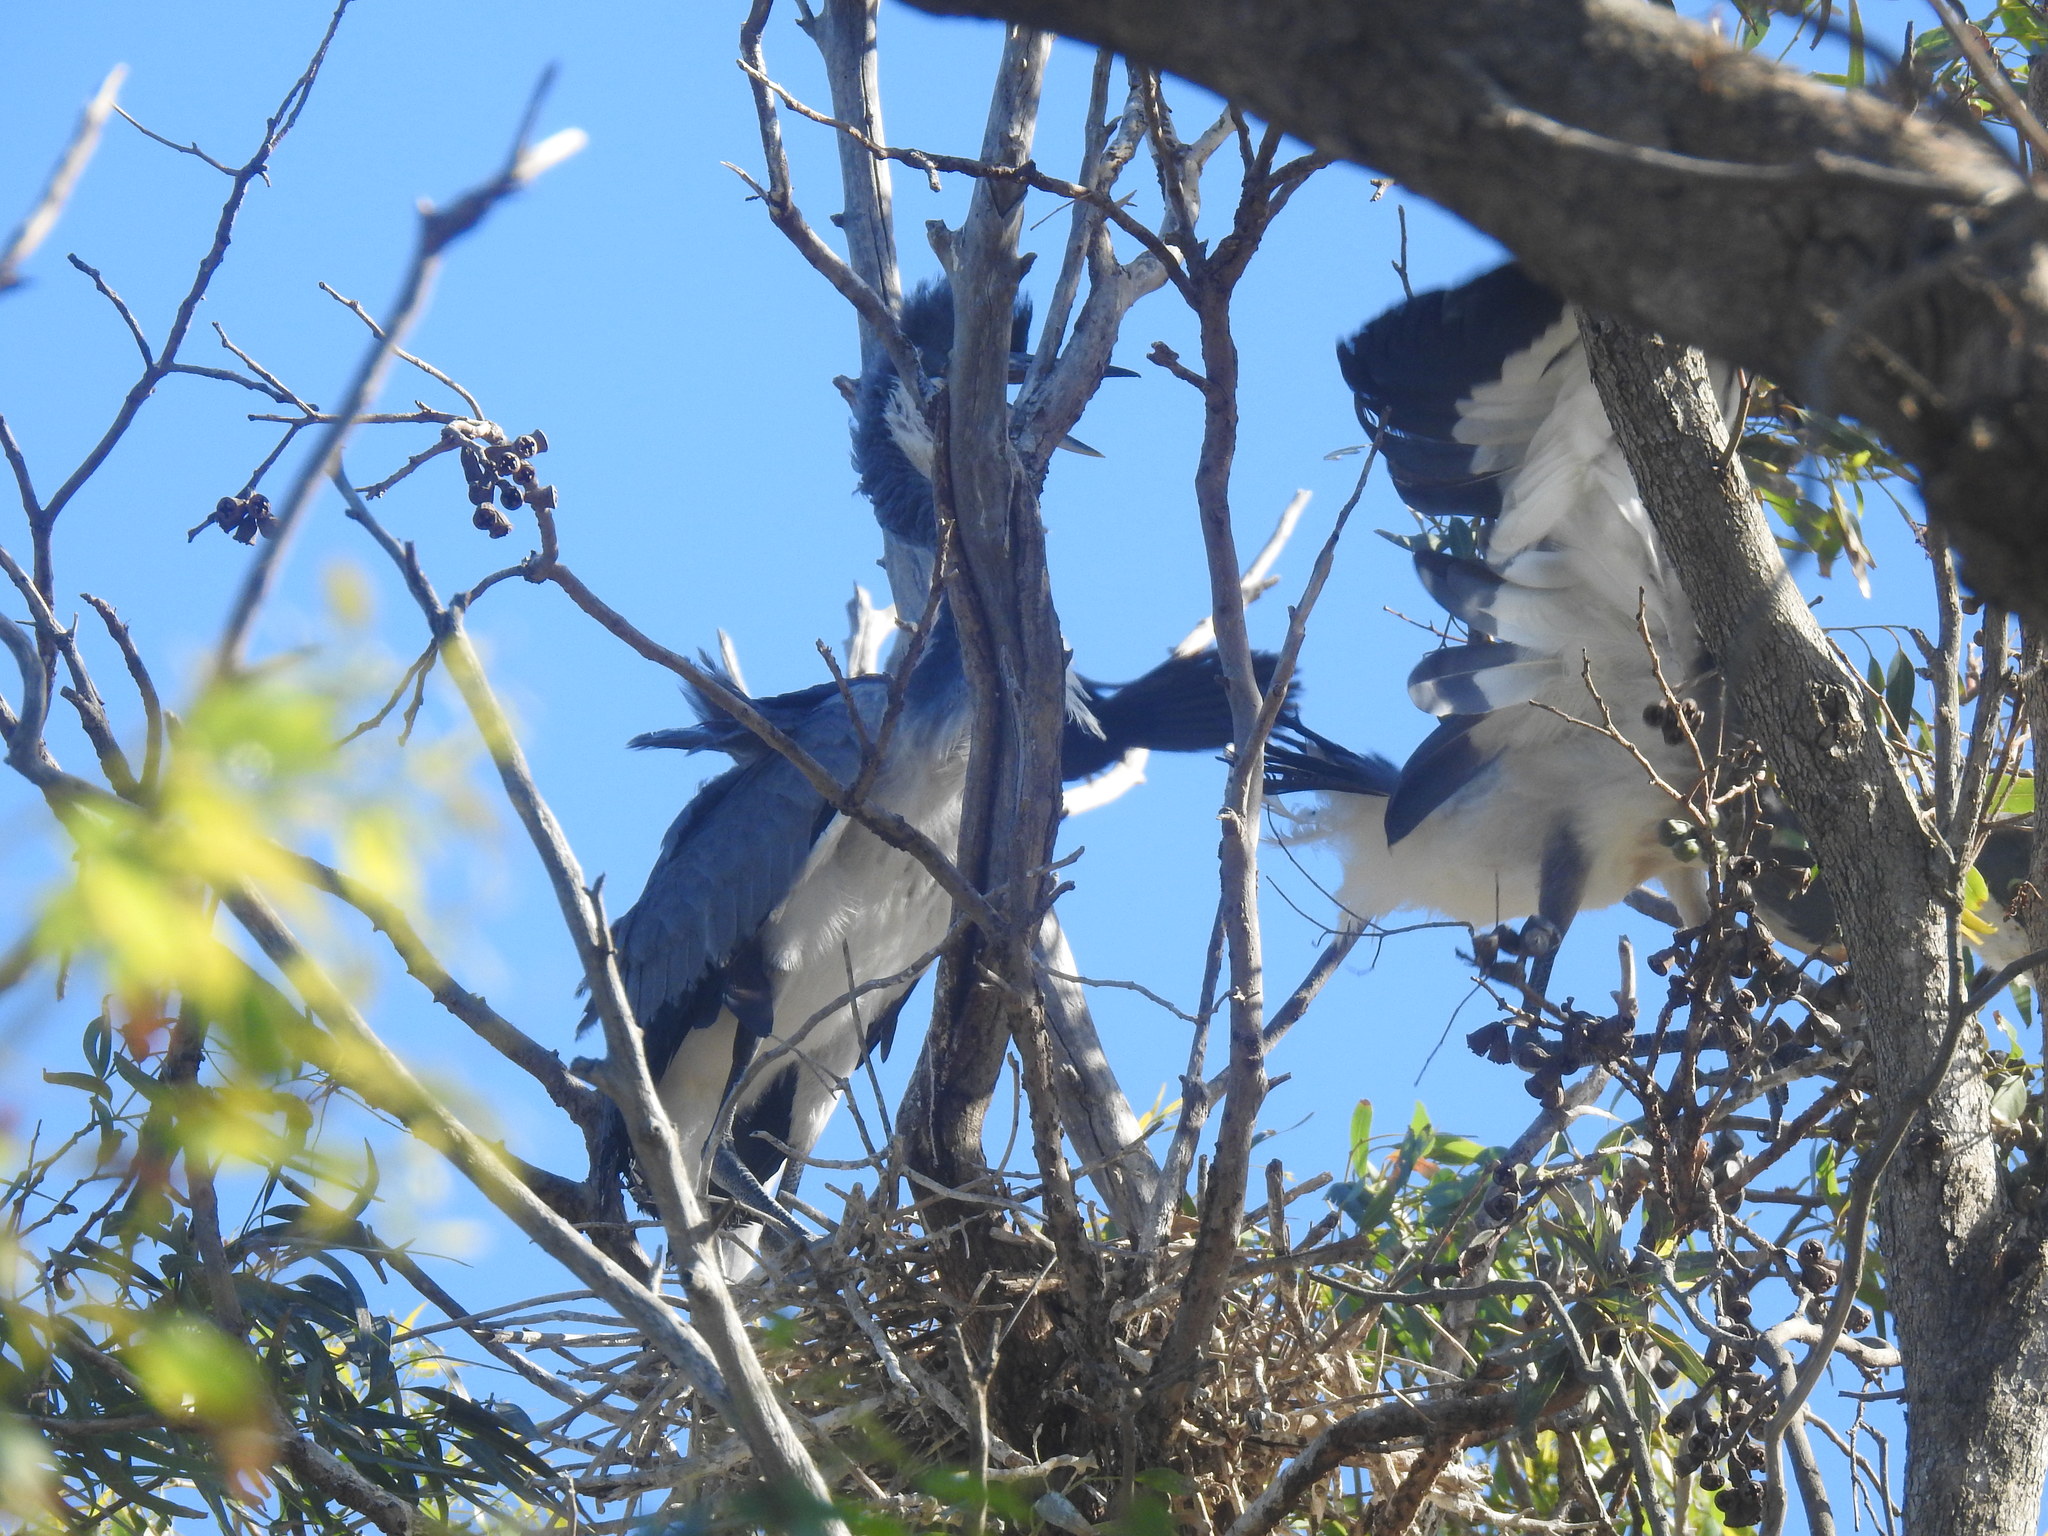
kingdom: Animalia
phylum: Chordata
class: Aves
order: Pelecaniformes
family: Ardeidae
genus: Ardea
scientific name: Ardea melanocephala
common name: Black-headed heron
